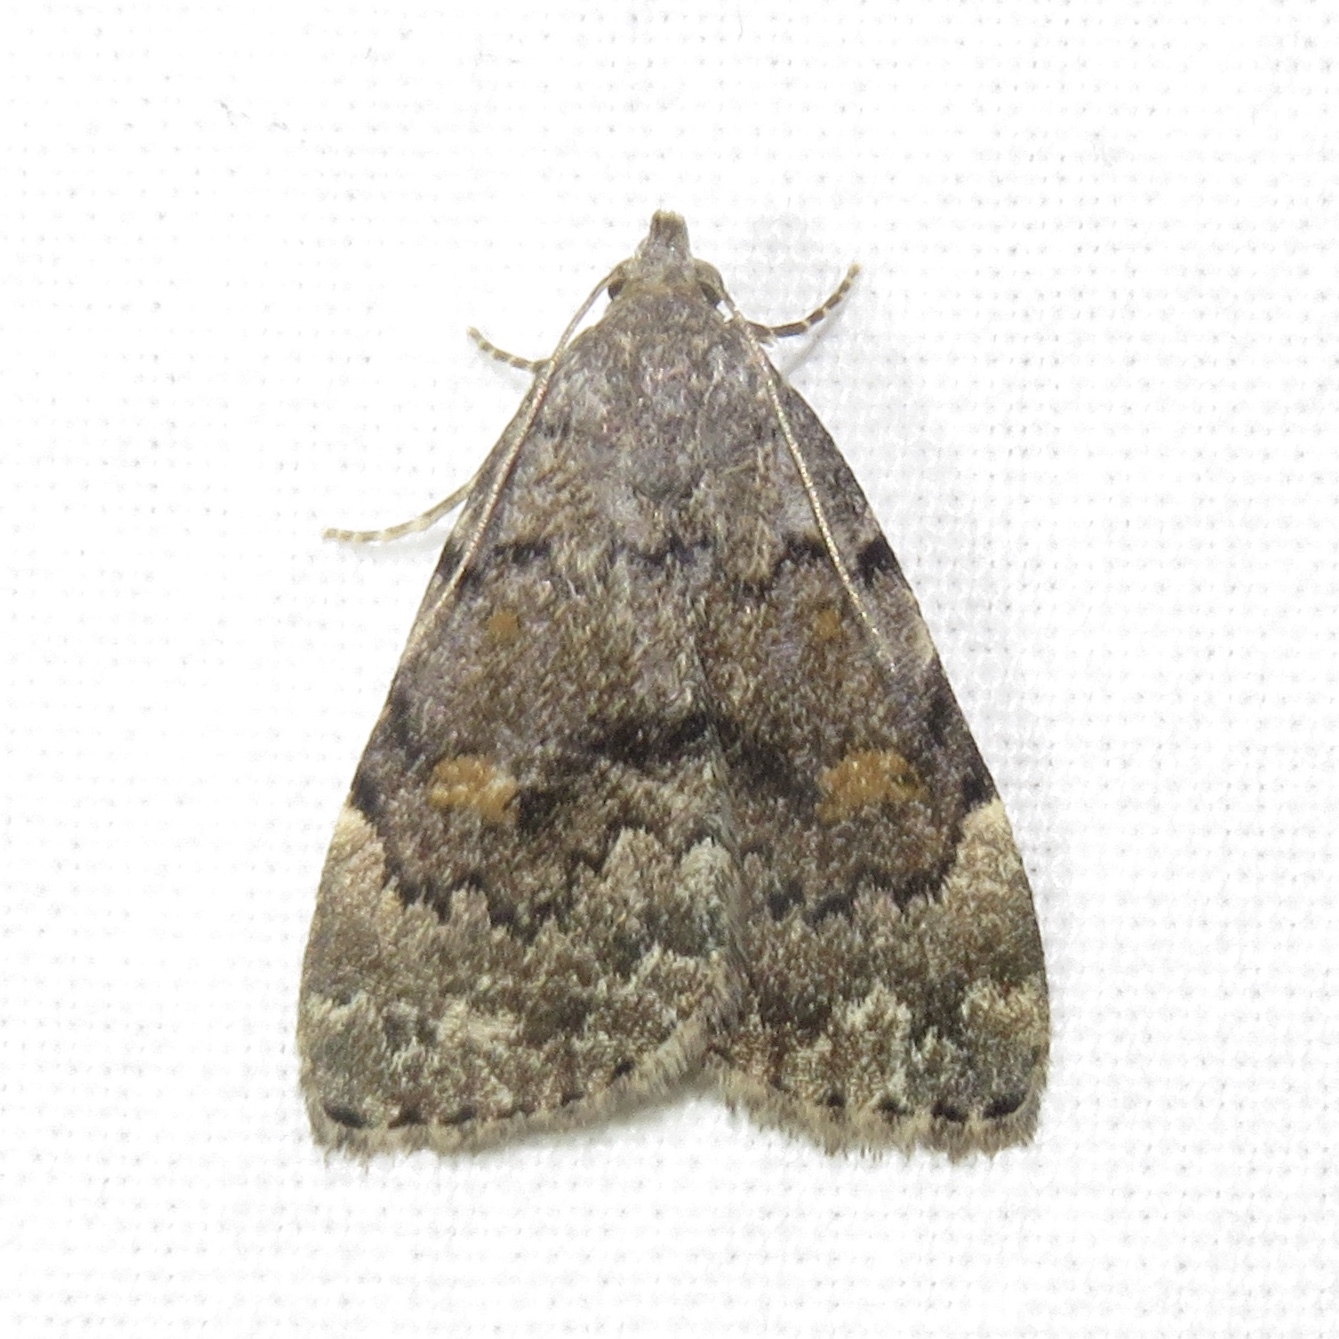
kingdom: Animalia
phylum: Arthropoda
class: Insecta
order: Lepidoptera
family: Erebidae
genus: Idia
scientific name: Idia aemula
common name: Common idia moth
